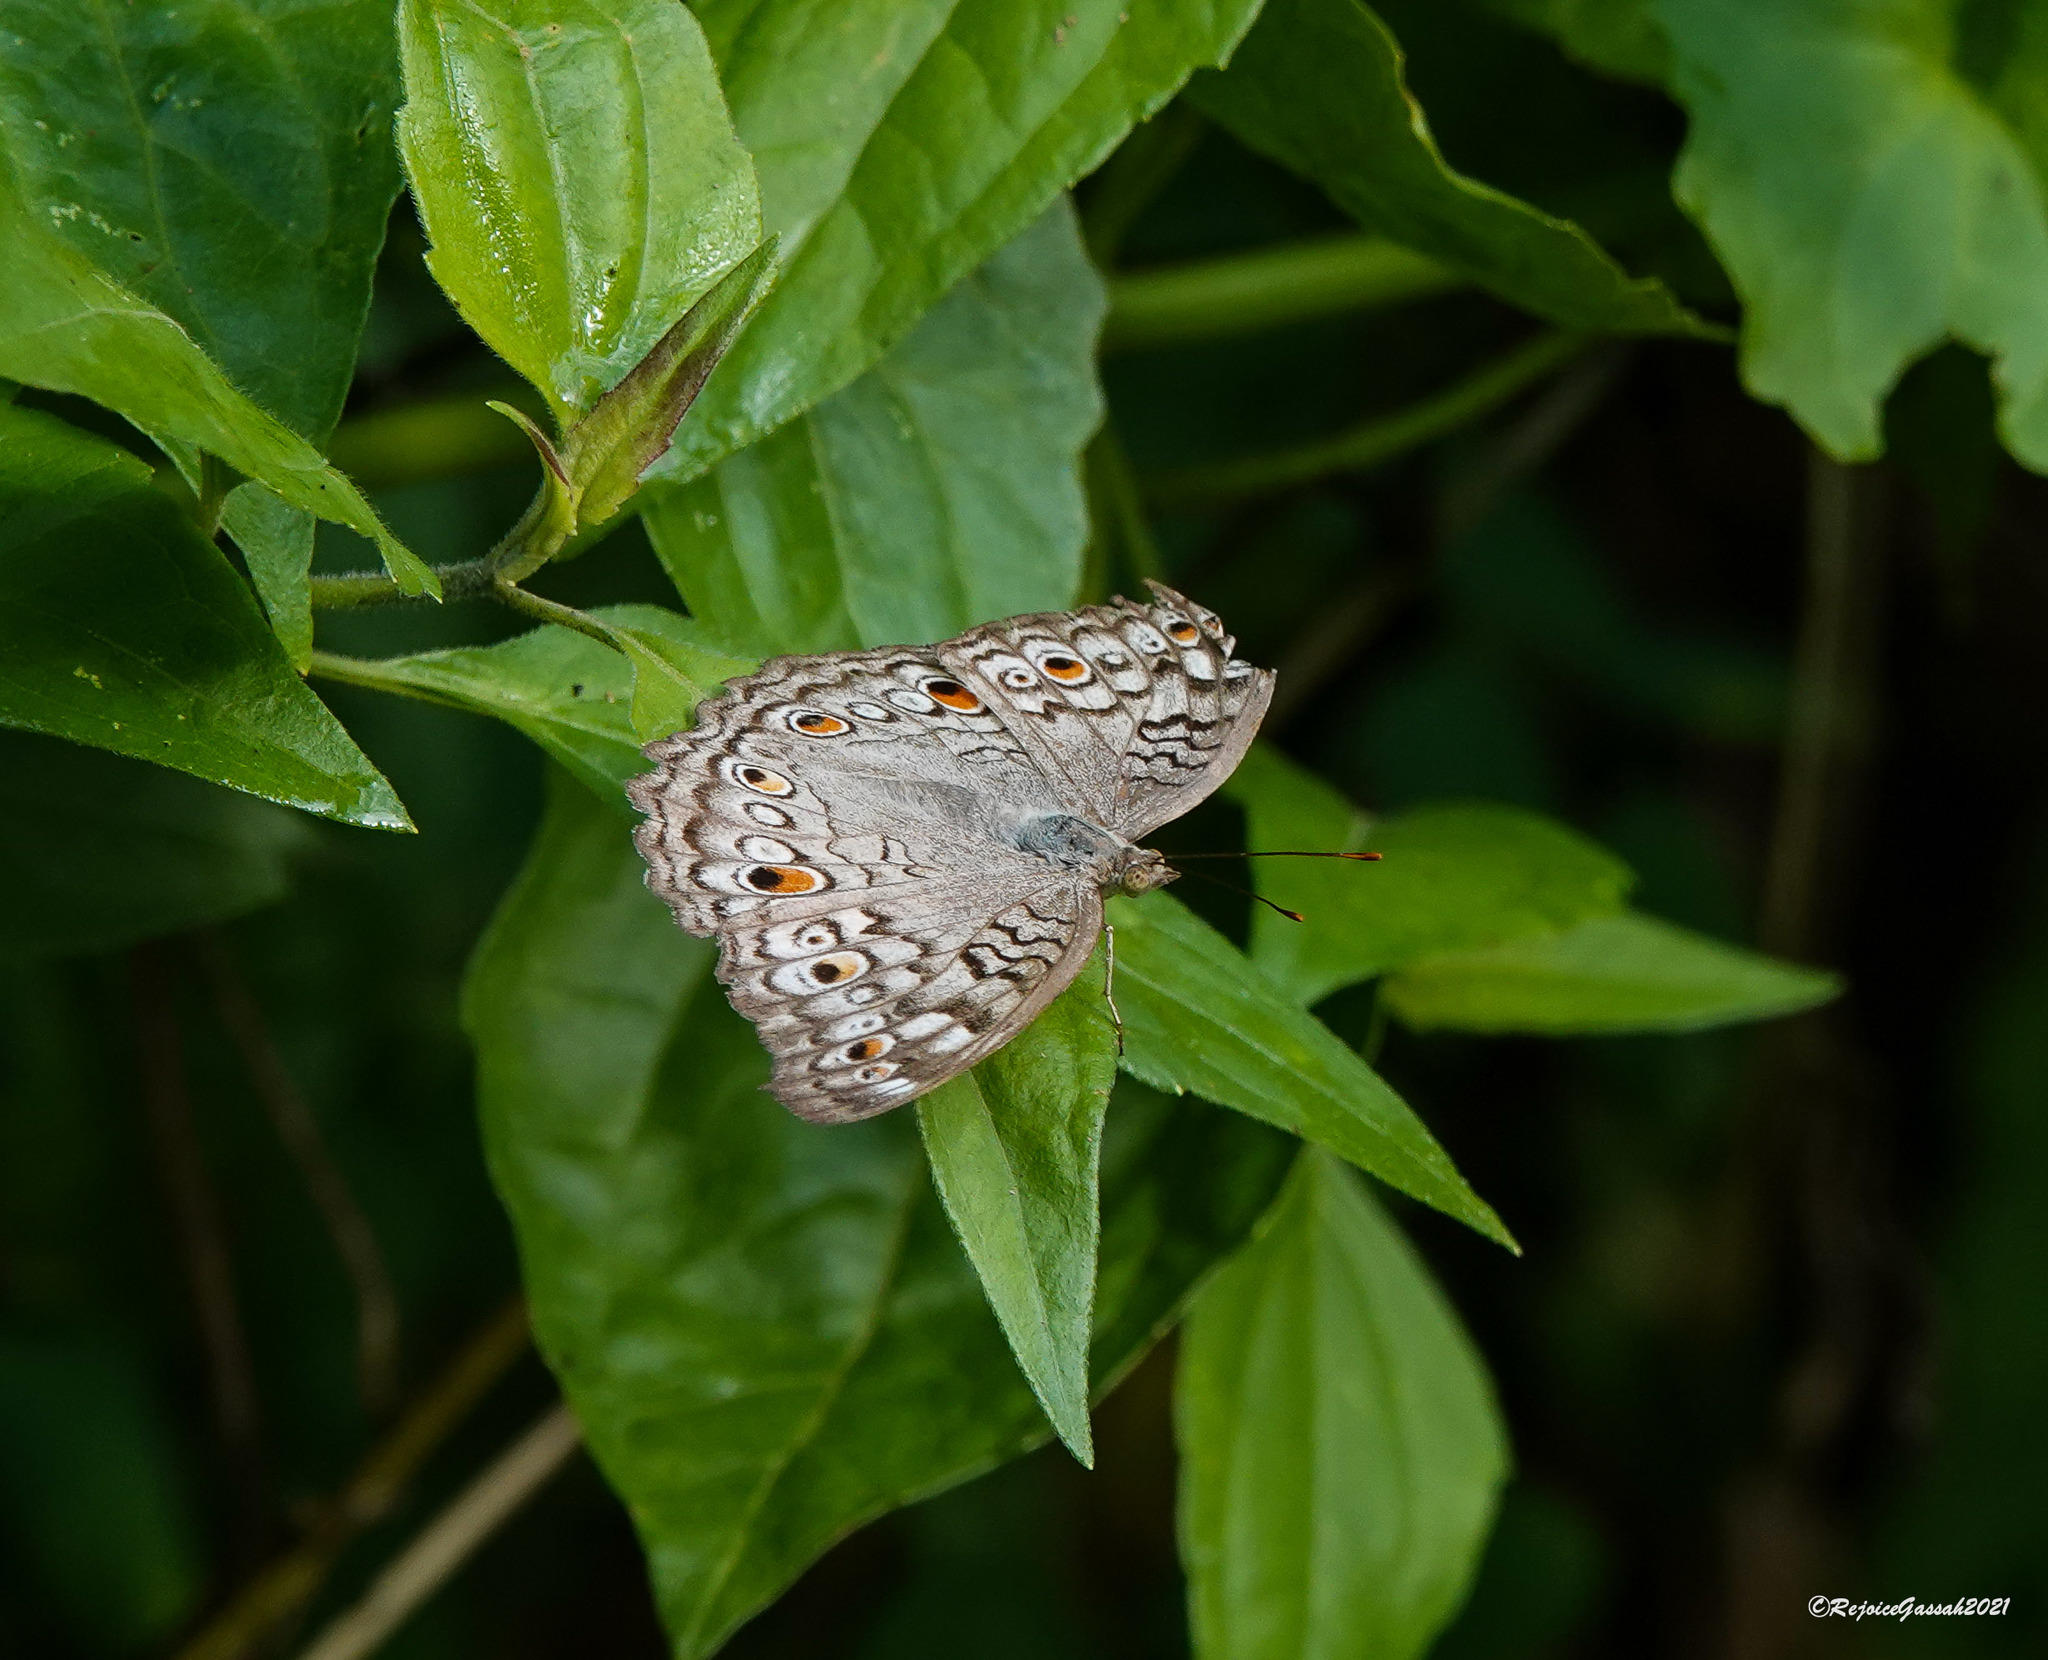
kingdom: Animalia
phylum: Arthropoda
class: Insecta
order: Lepidoptera
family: Nymphalidae
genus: Junonia
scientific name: Junonia atlites
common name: Grey pansy
